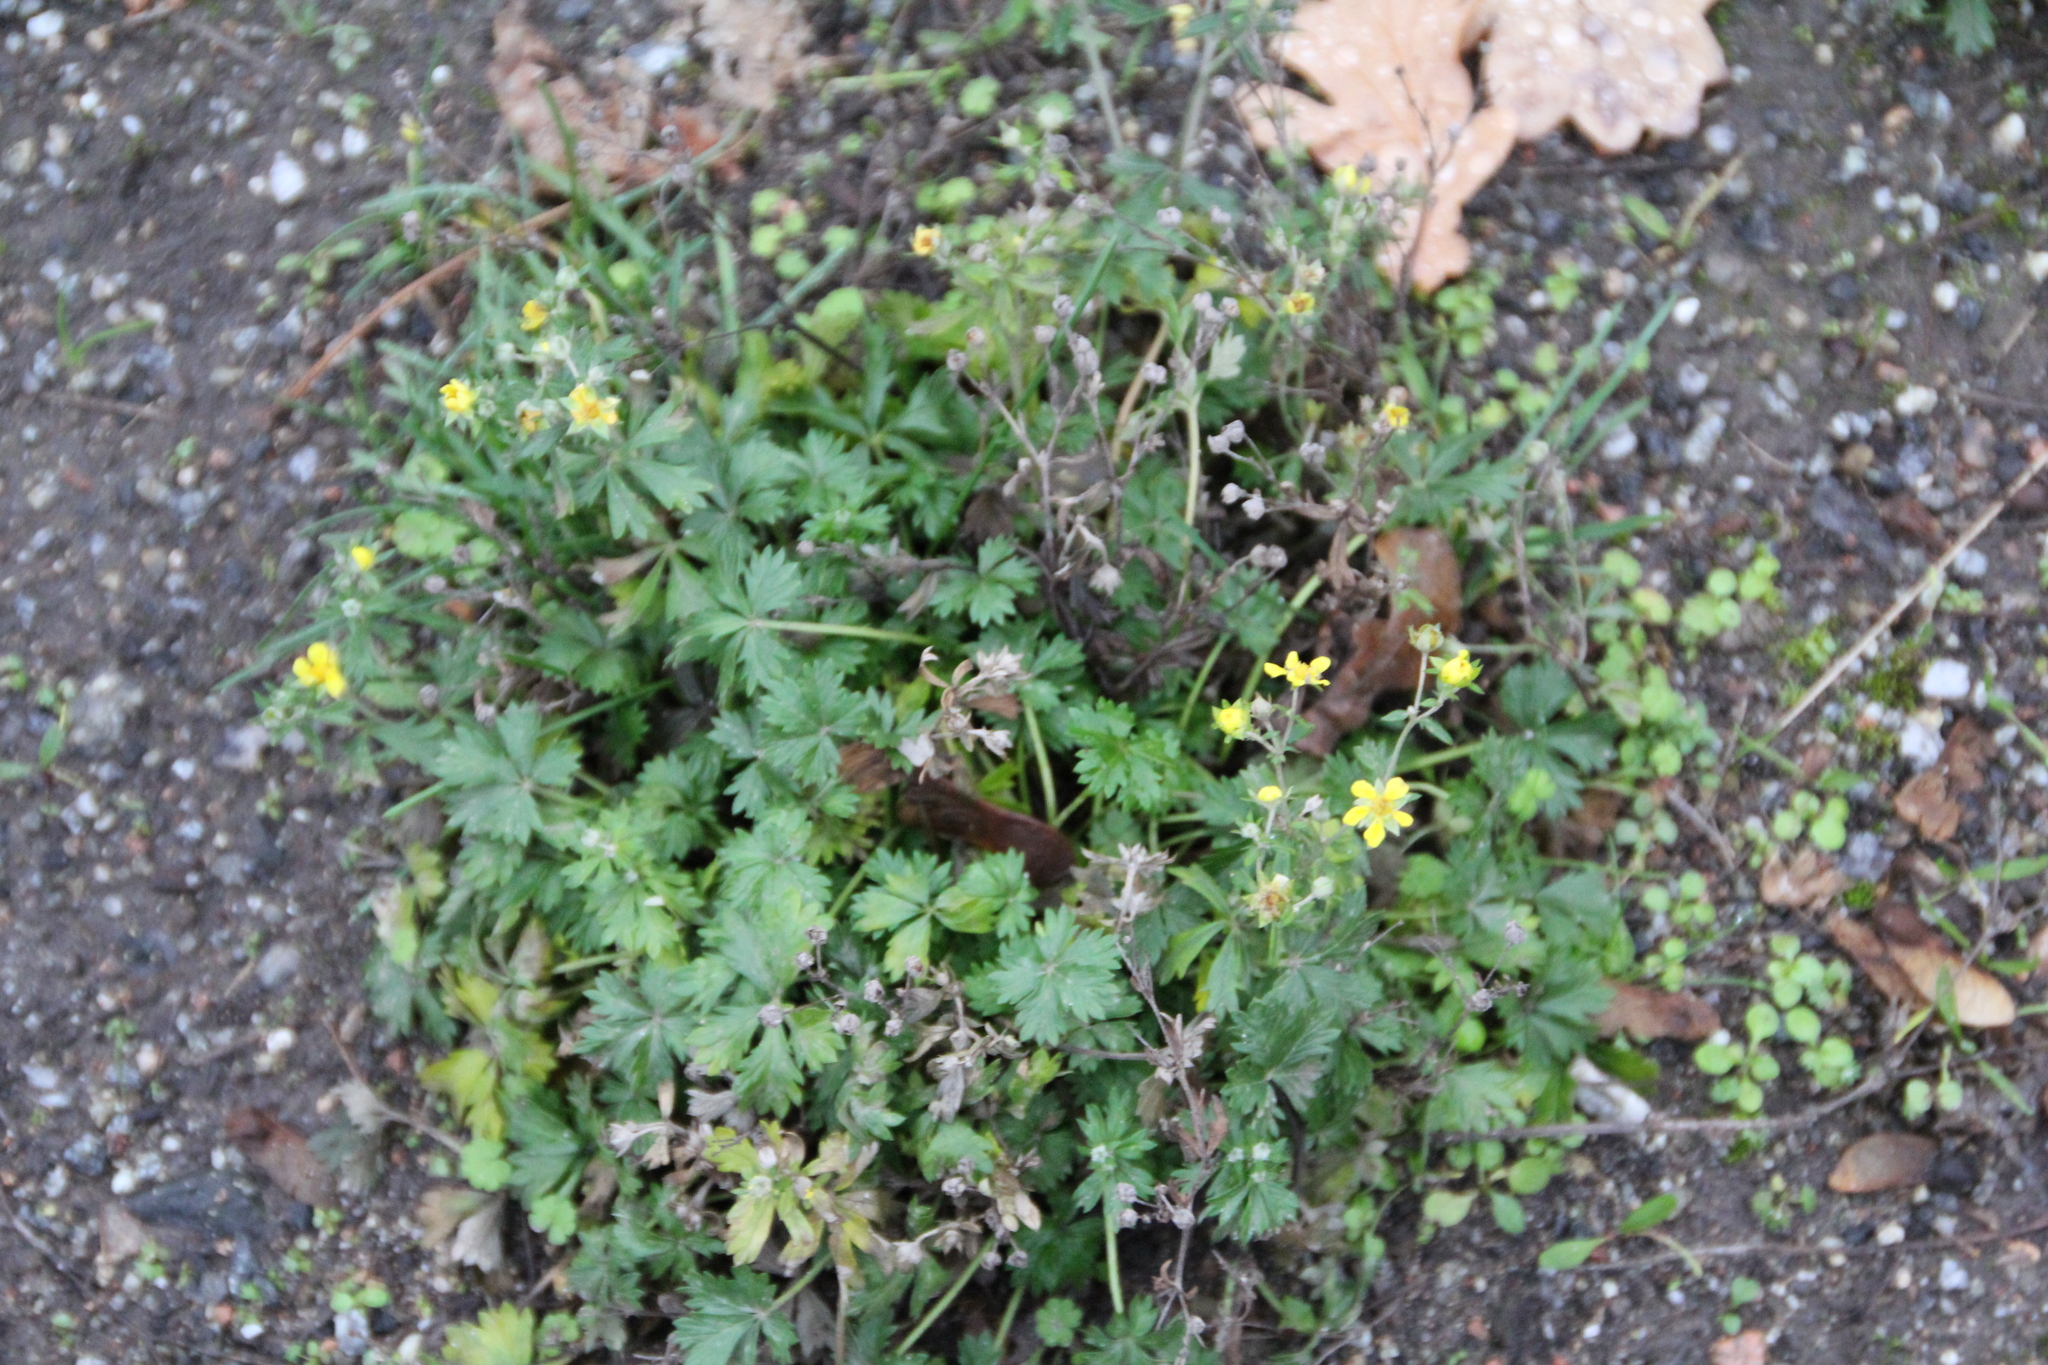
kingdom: Plantae
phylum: Tracheophyta
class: Magnoliopsida
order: Rosales
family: Rosaceae
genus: Potentilla
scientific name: Potentilla argentea
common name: Hoary cinquefoil
